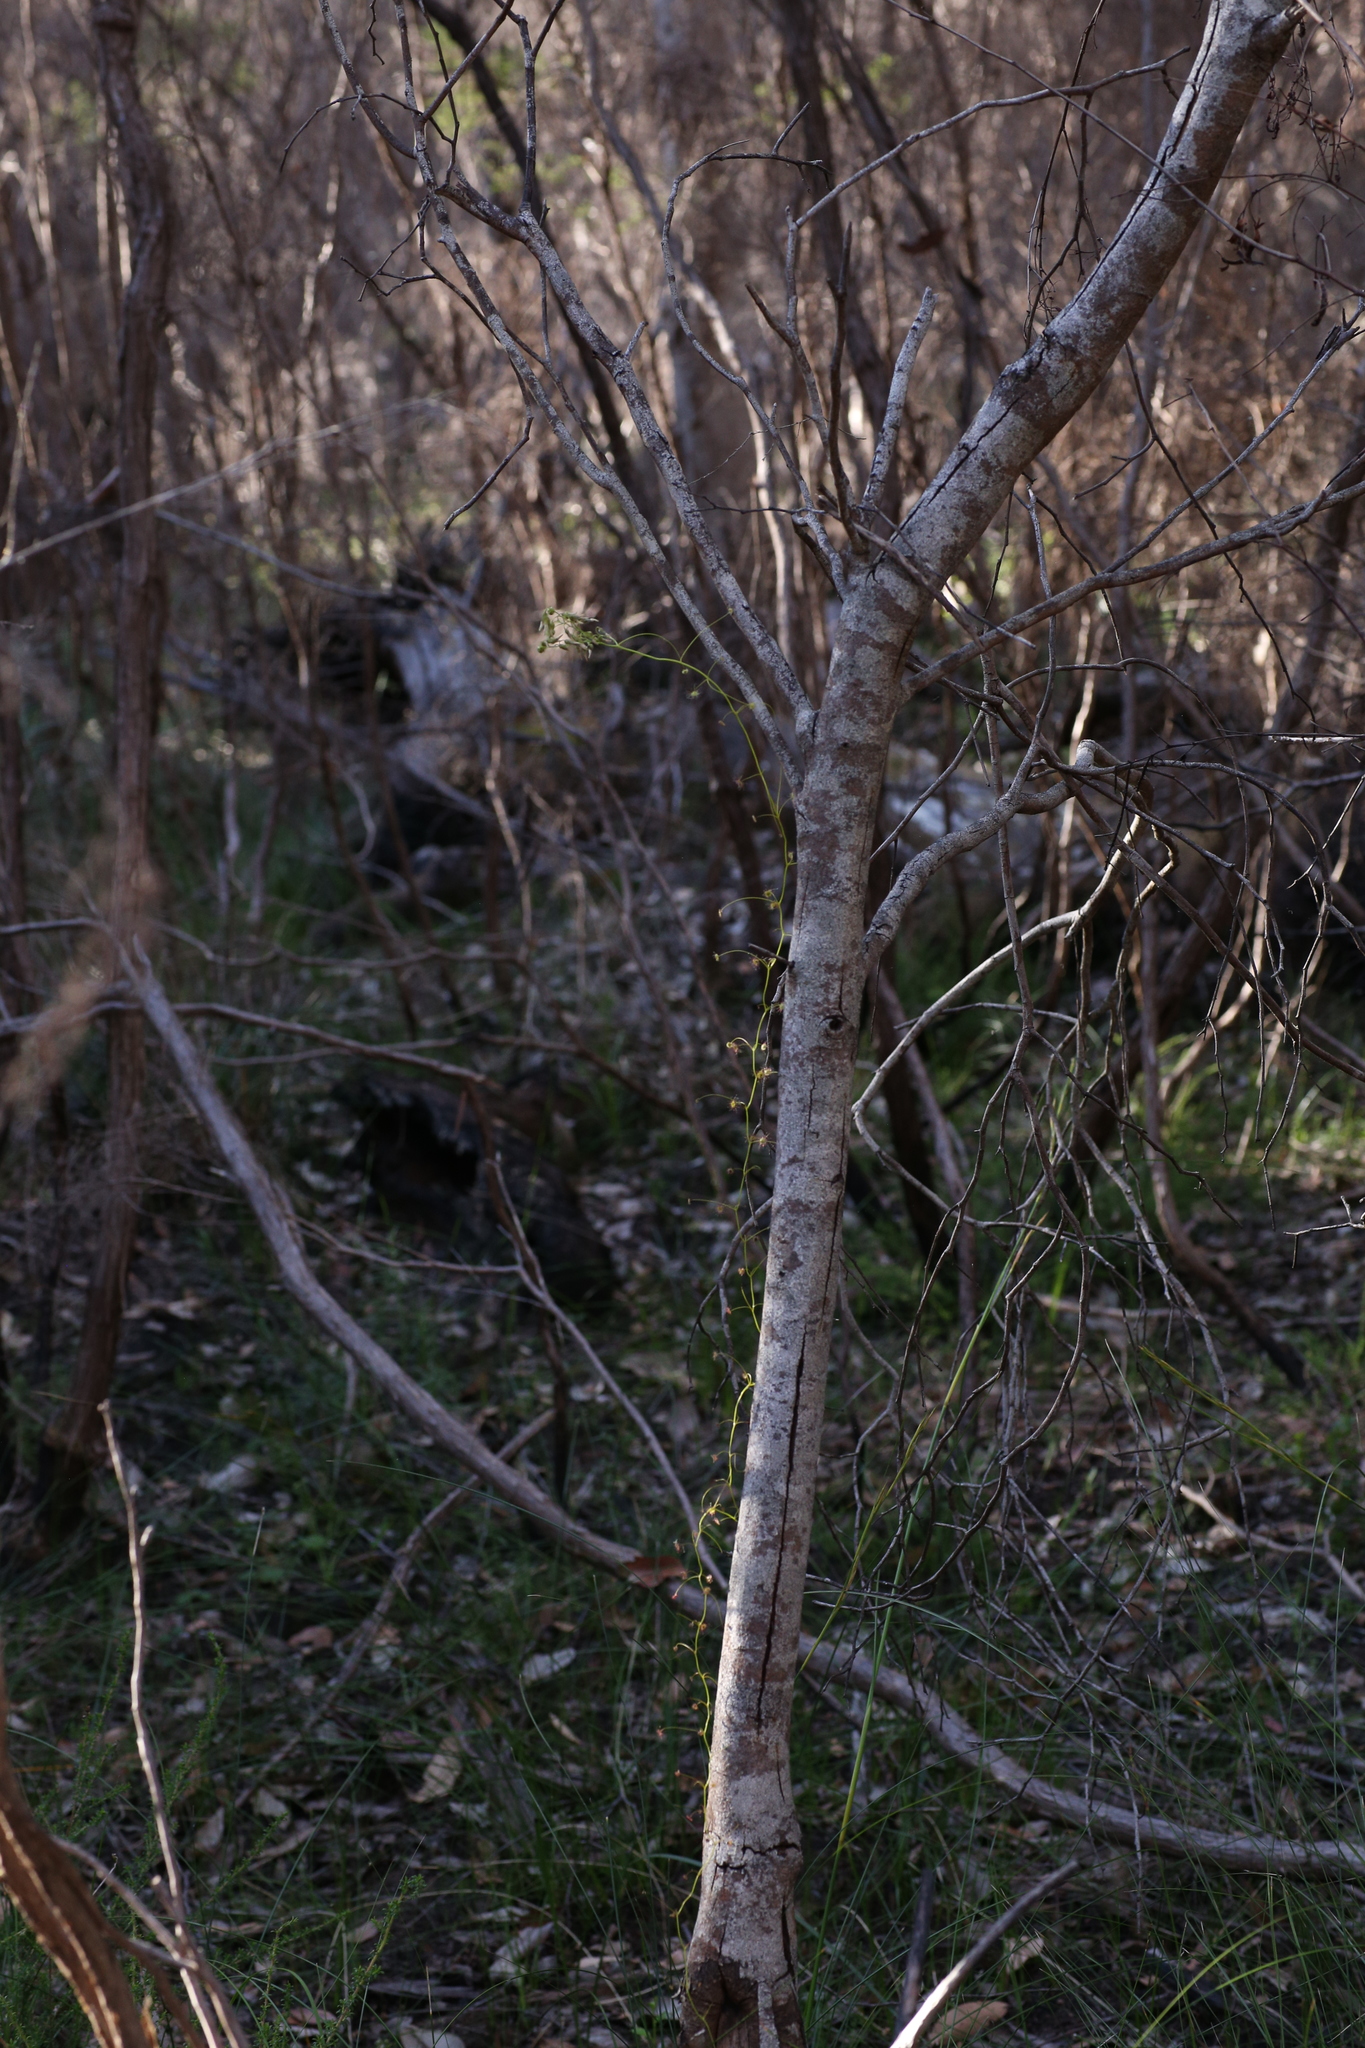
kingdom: Plantae
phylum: Tracheophyta
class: Magnoliopsida
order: Caryophyllales
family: Droseraceae
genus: Drosera
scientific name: Drosera erythrogyne
